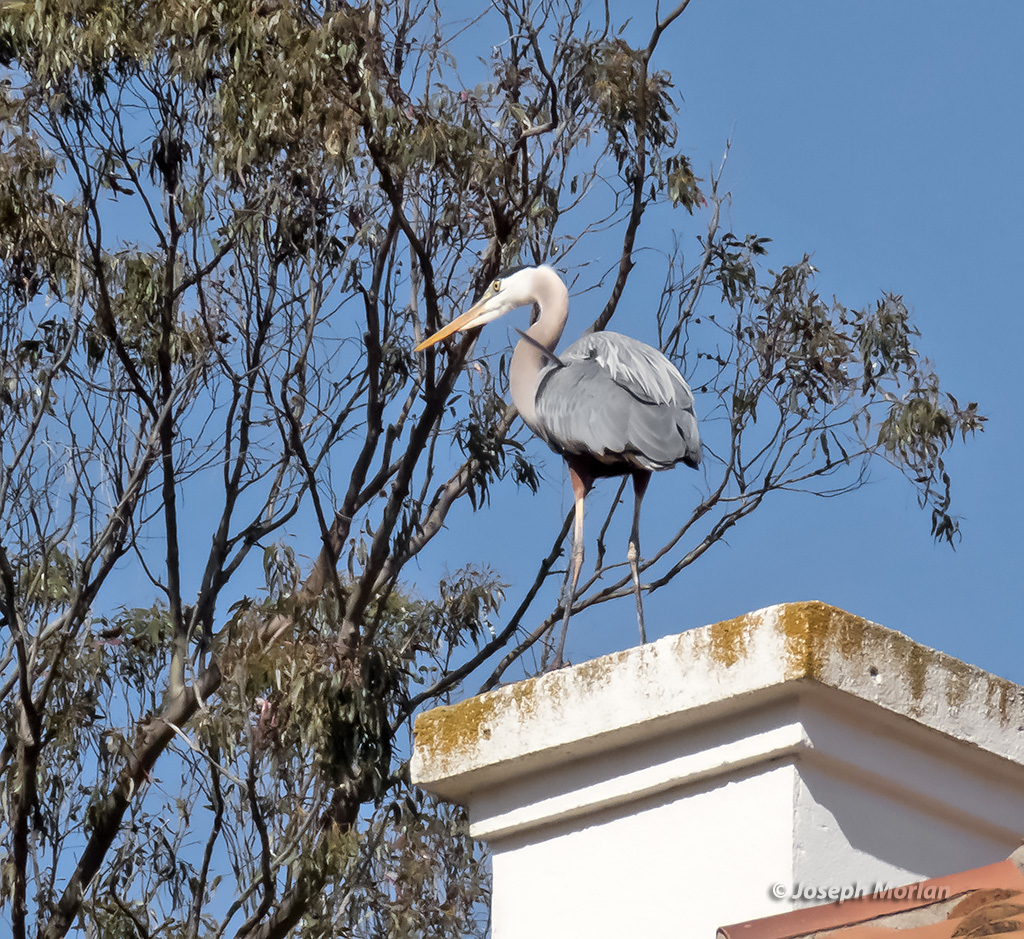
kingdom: Animalia
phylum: Chordata
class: Aves
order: Pelecaniformes
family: Ardeidae
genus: Ardea
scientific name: Ardea herodias
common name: Great blue heron
